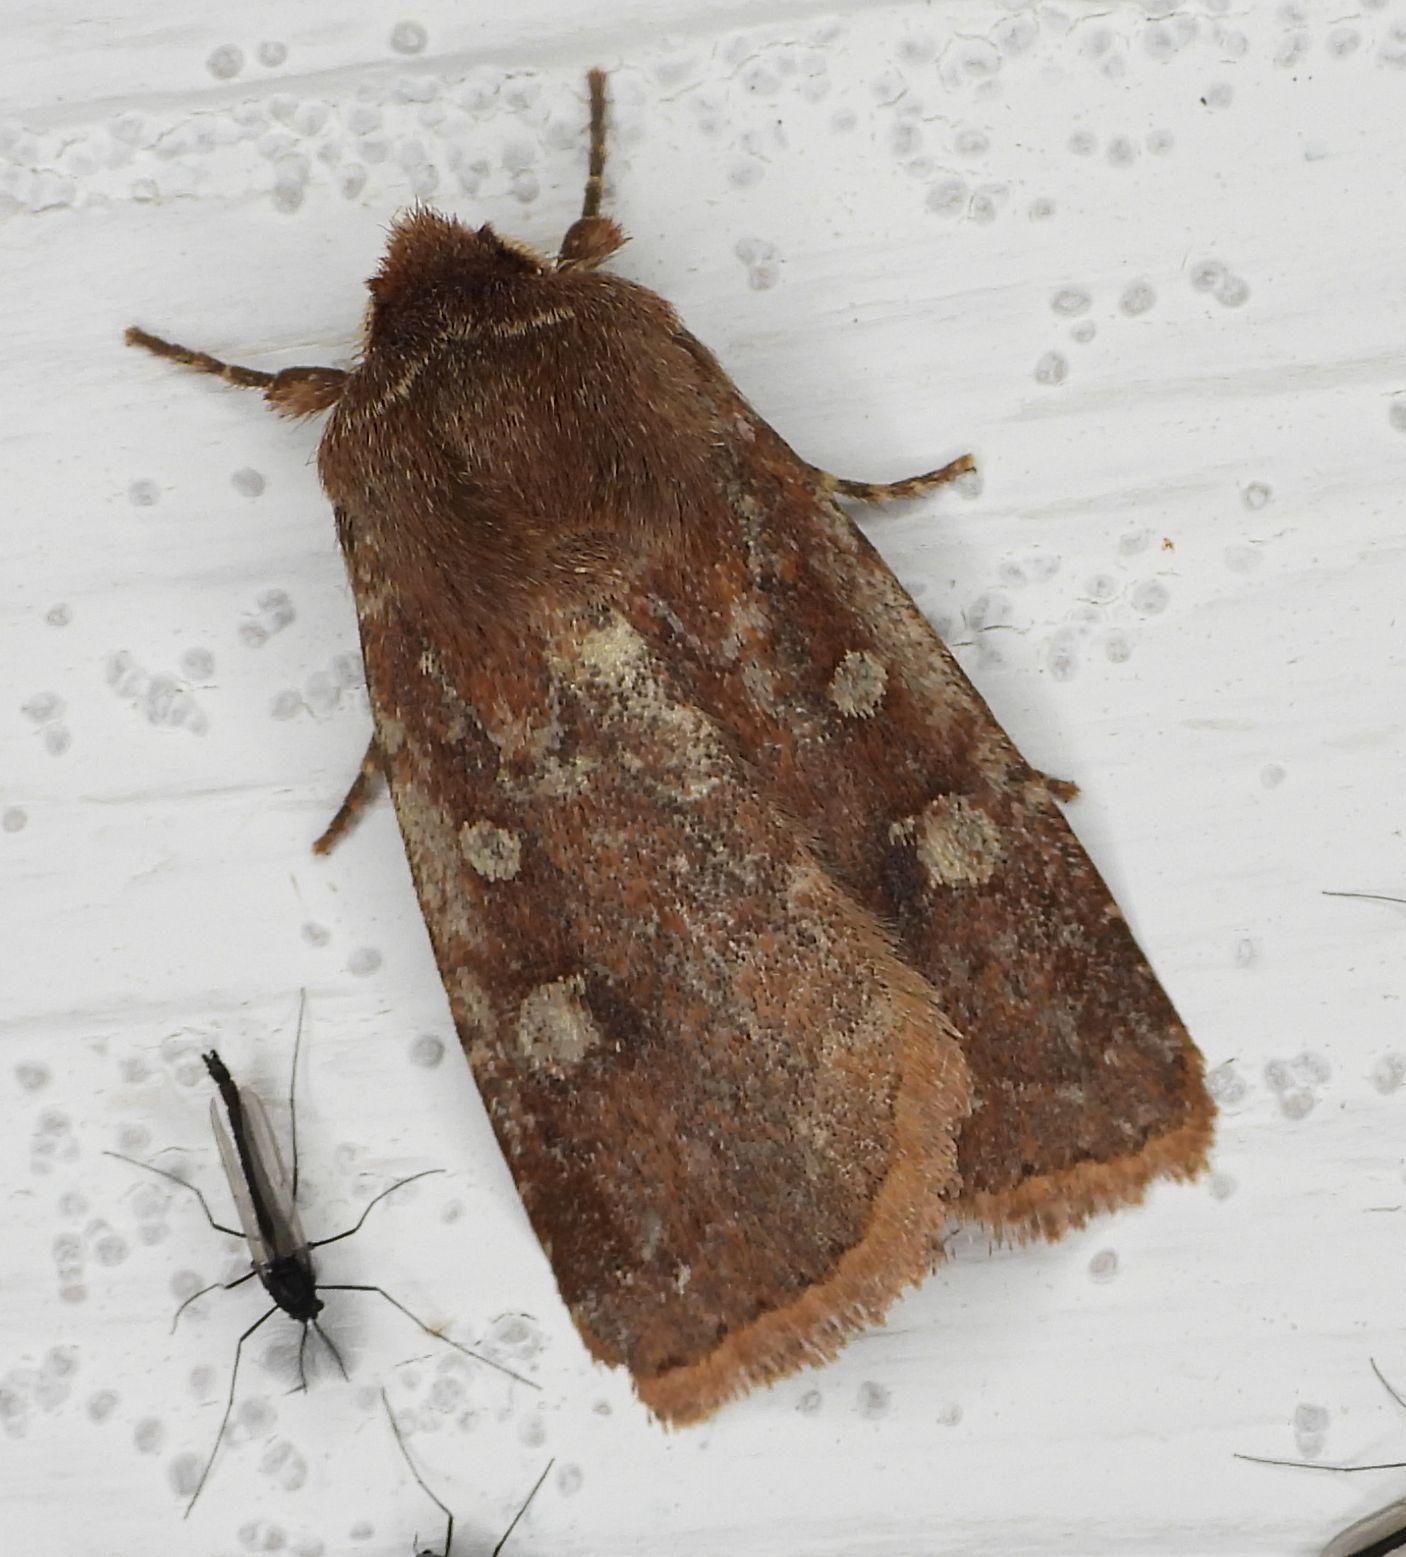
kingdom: Animalia
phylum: Arthropoda
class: Insecta
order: Lepidoptera
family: Noctuidae
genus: Cerastis
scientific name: Cerastis tenebrifera
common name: Reddish speckled dart
